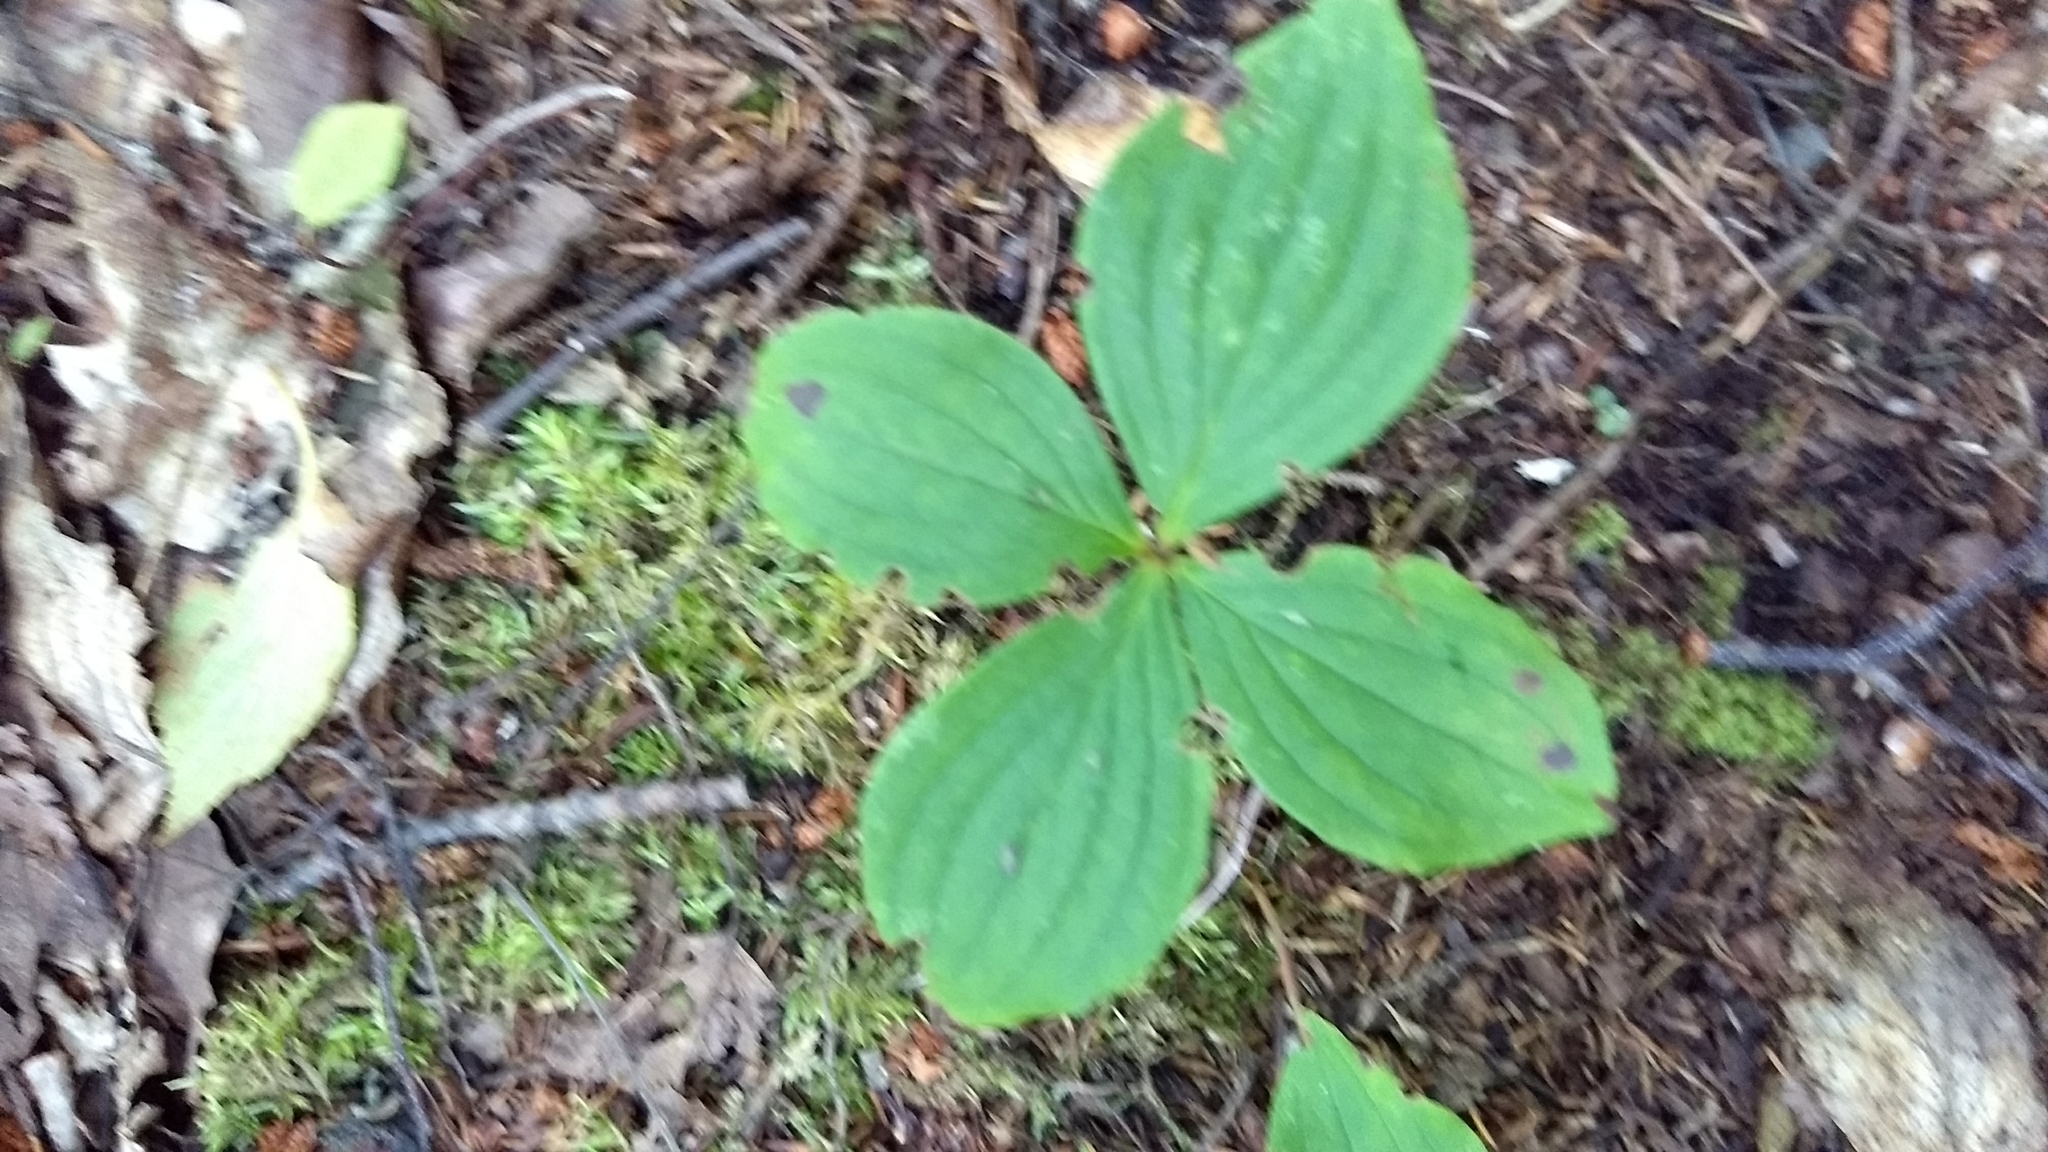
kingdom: Plantae
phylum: Tracheophyta
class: Magnoliopsida
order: Cornales
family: Cornaceae
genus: Cornus
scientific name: Cornus canadensis
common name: Creeping dogwood
